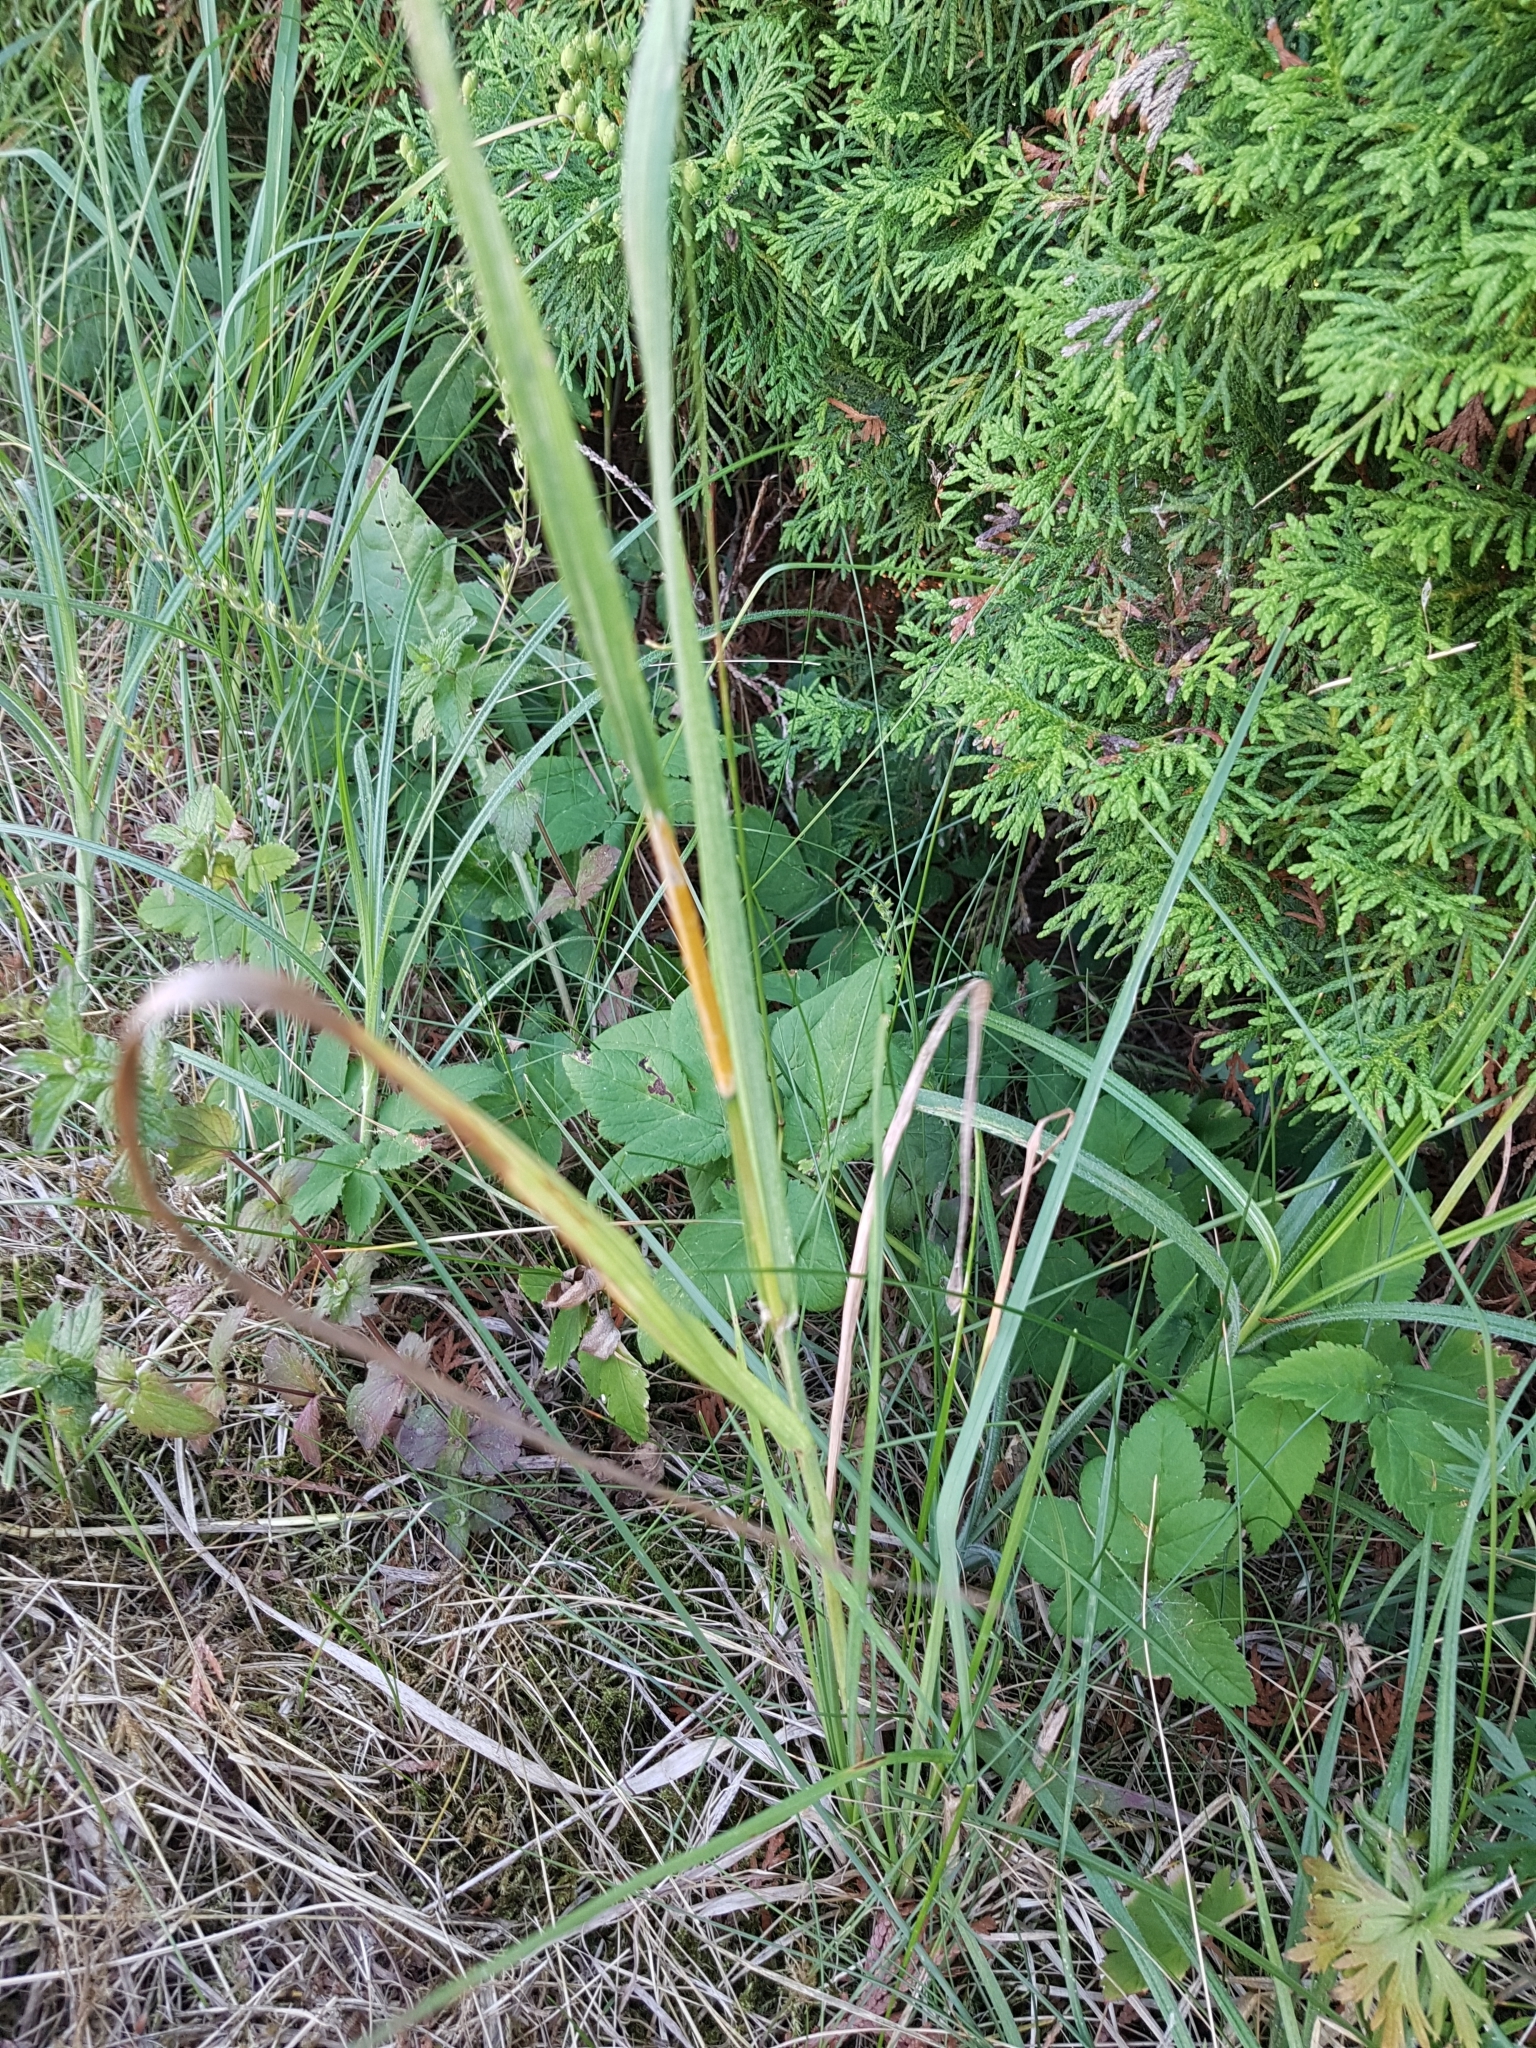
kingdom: Fungi
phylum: Ascomycota
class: Sordariomycetes
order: Hypocreales
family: Clavicipitaceae
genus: Epichloe
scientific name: Epichloe typhina
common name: Choke
